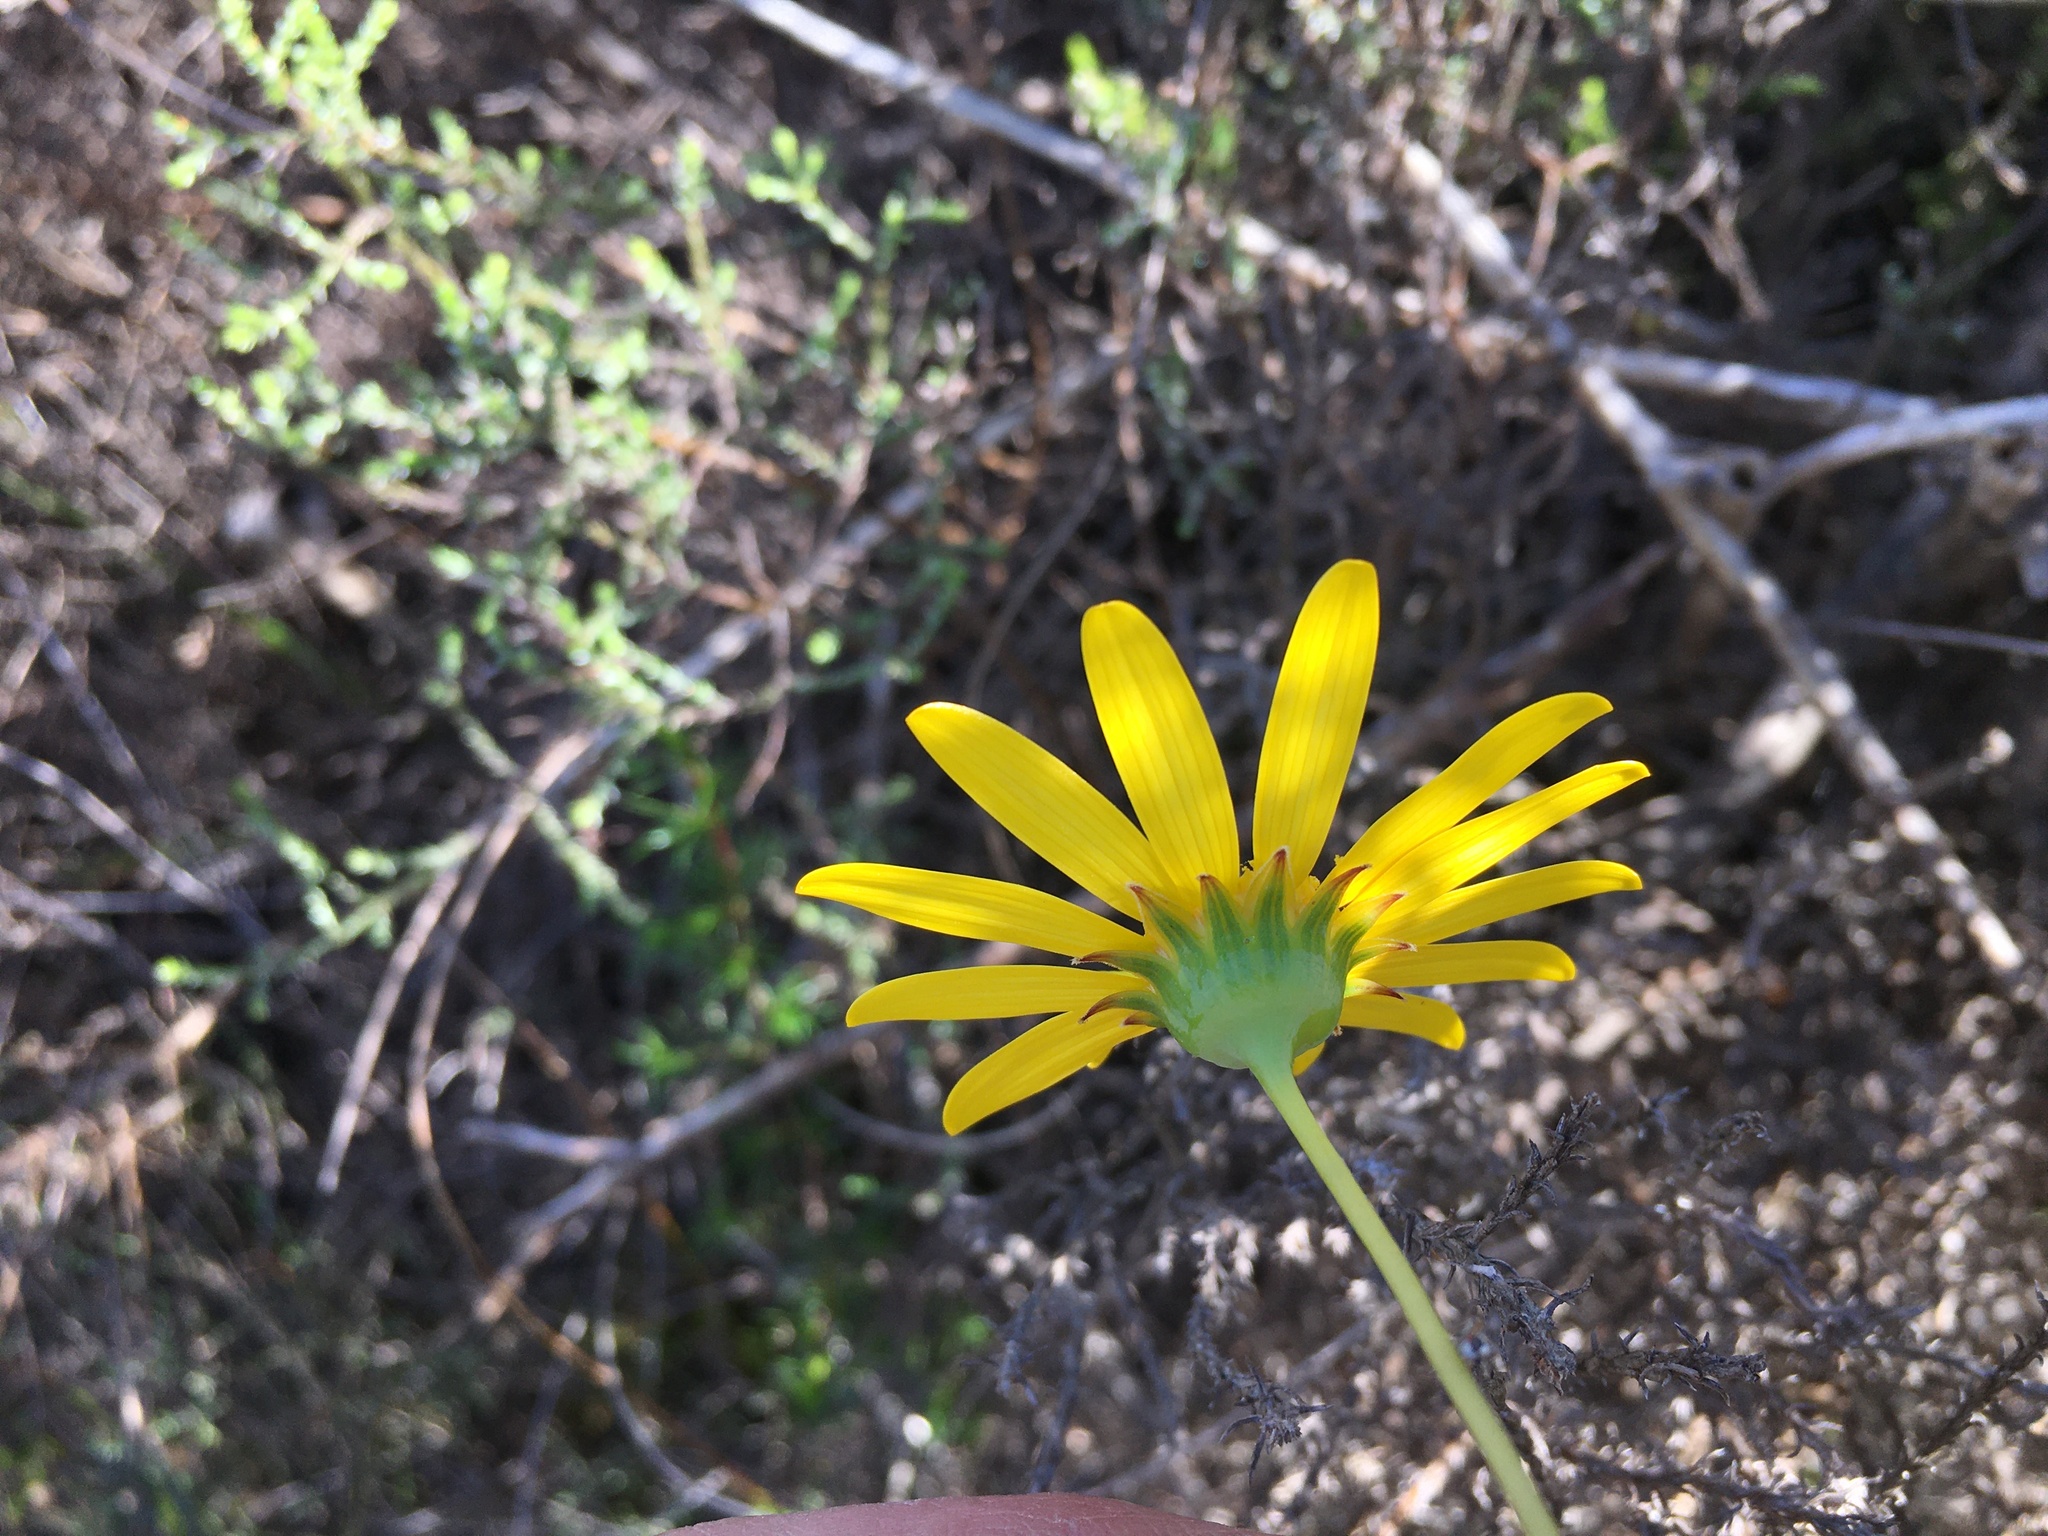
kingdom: Plantae
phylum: Tracheophyta
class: Magnoliopsida
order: Asterales
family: Asteraceae
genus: Euryops
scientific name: Euryops abrotanifolius
